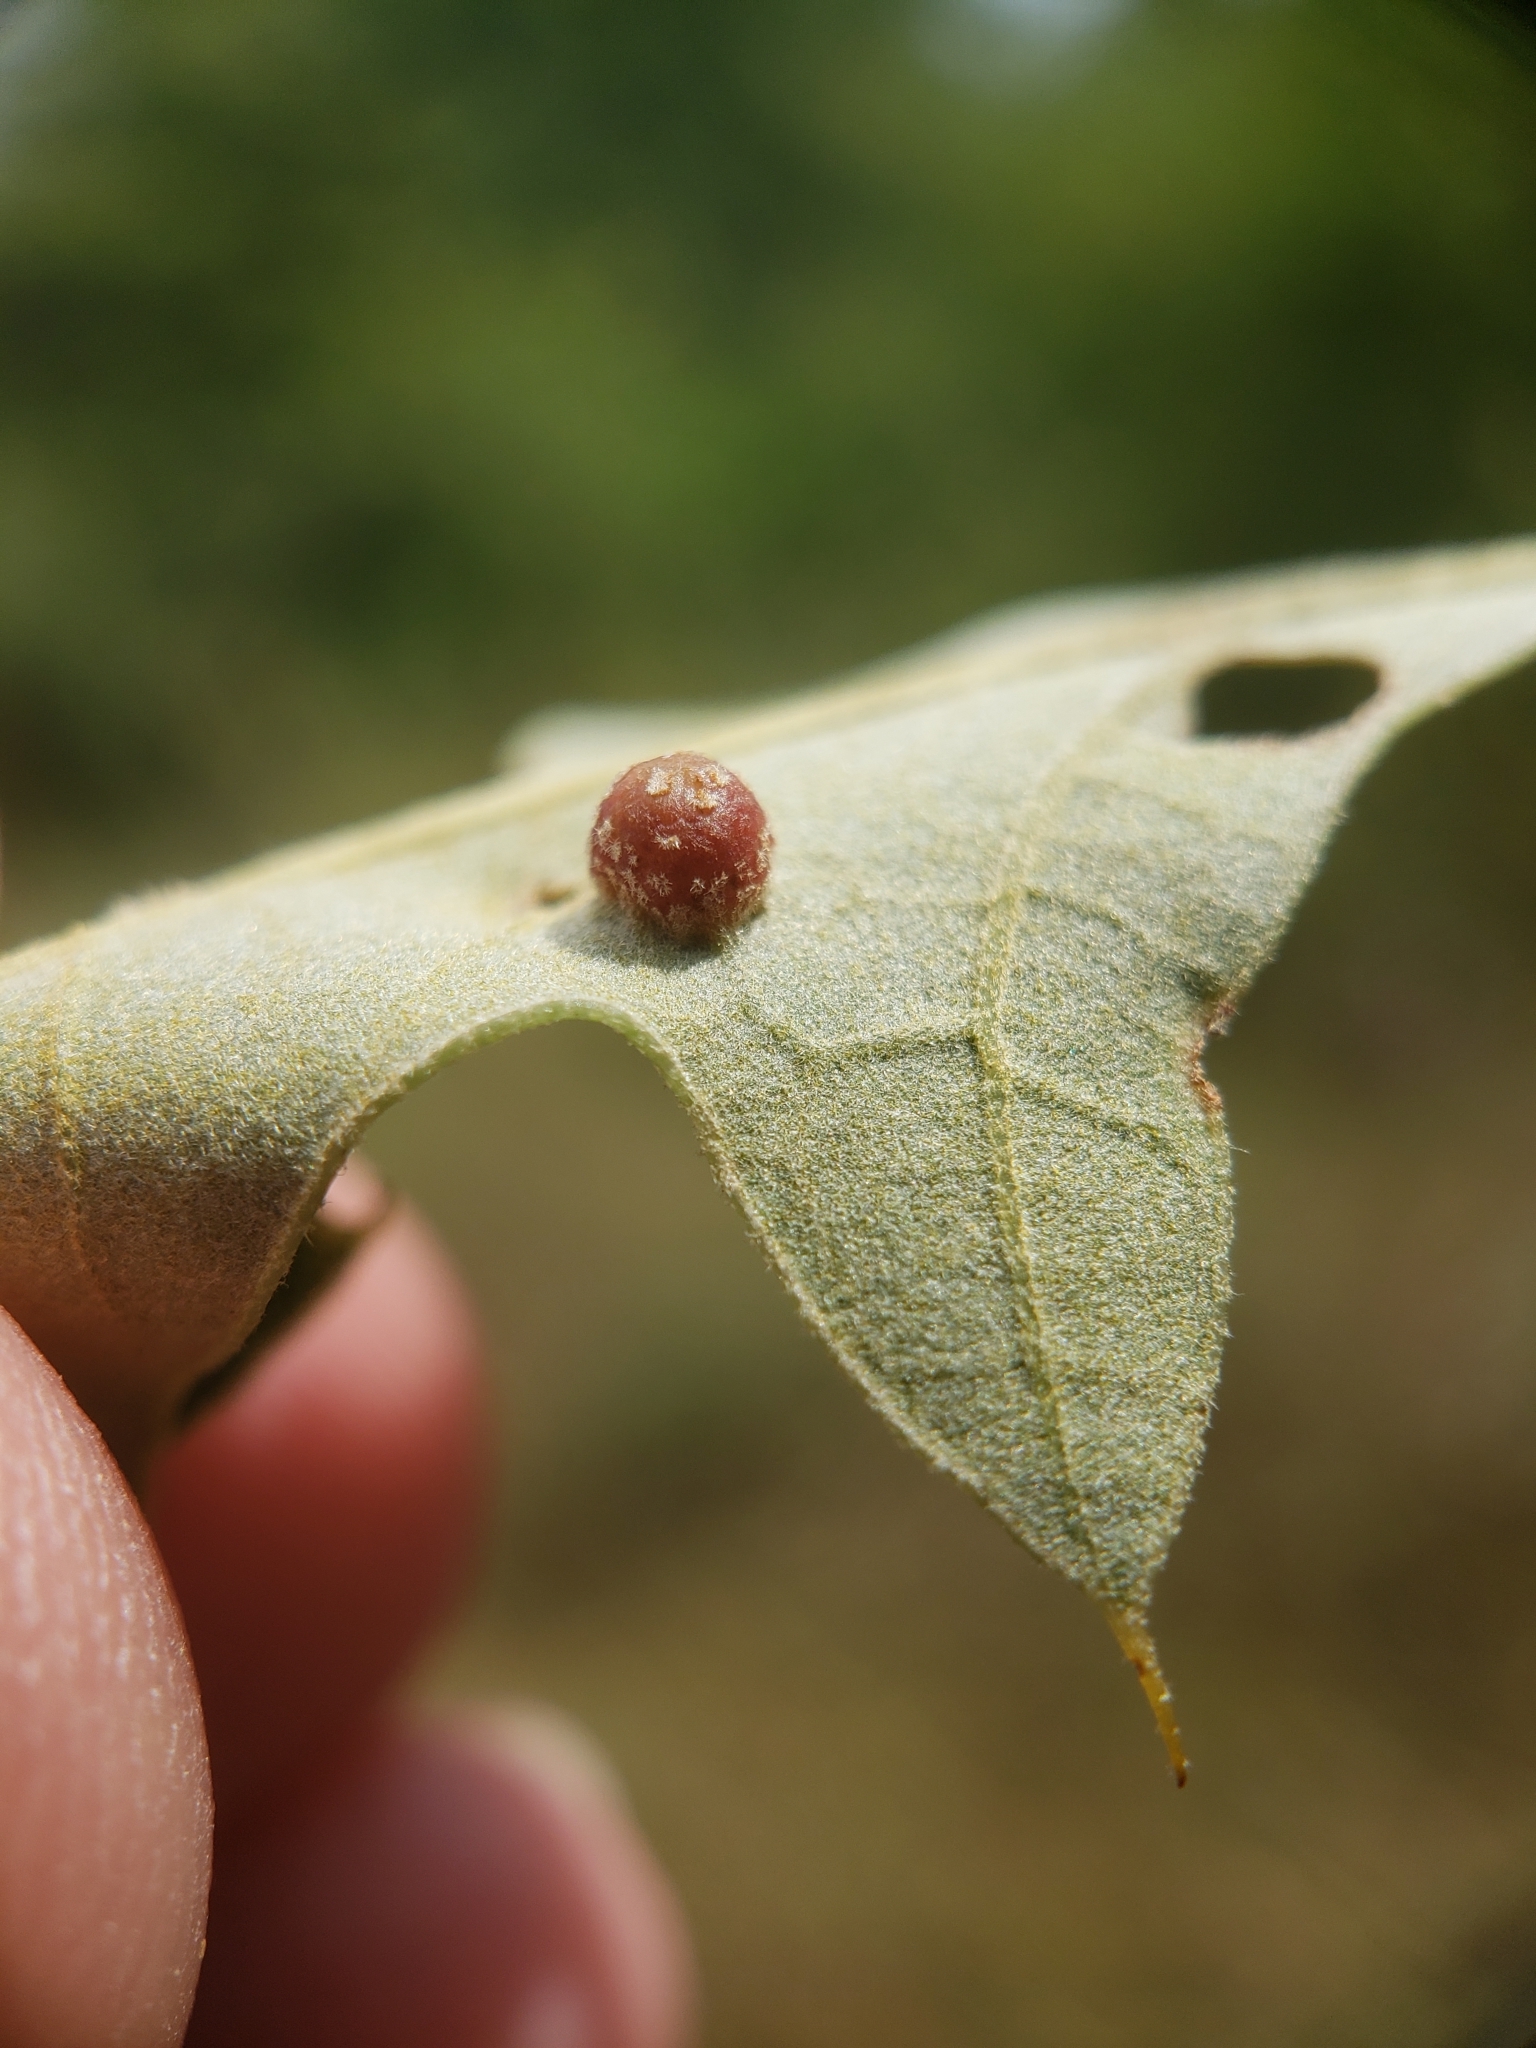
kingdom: Animalia
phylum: Arthropoda
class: Insecta
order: Diptera
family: Cecidomyiidae
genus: Polystepha
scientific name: Polystepha globosa
